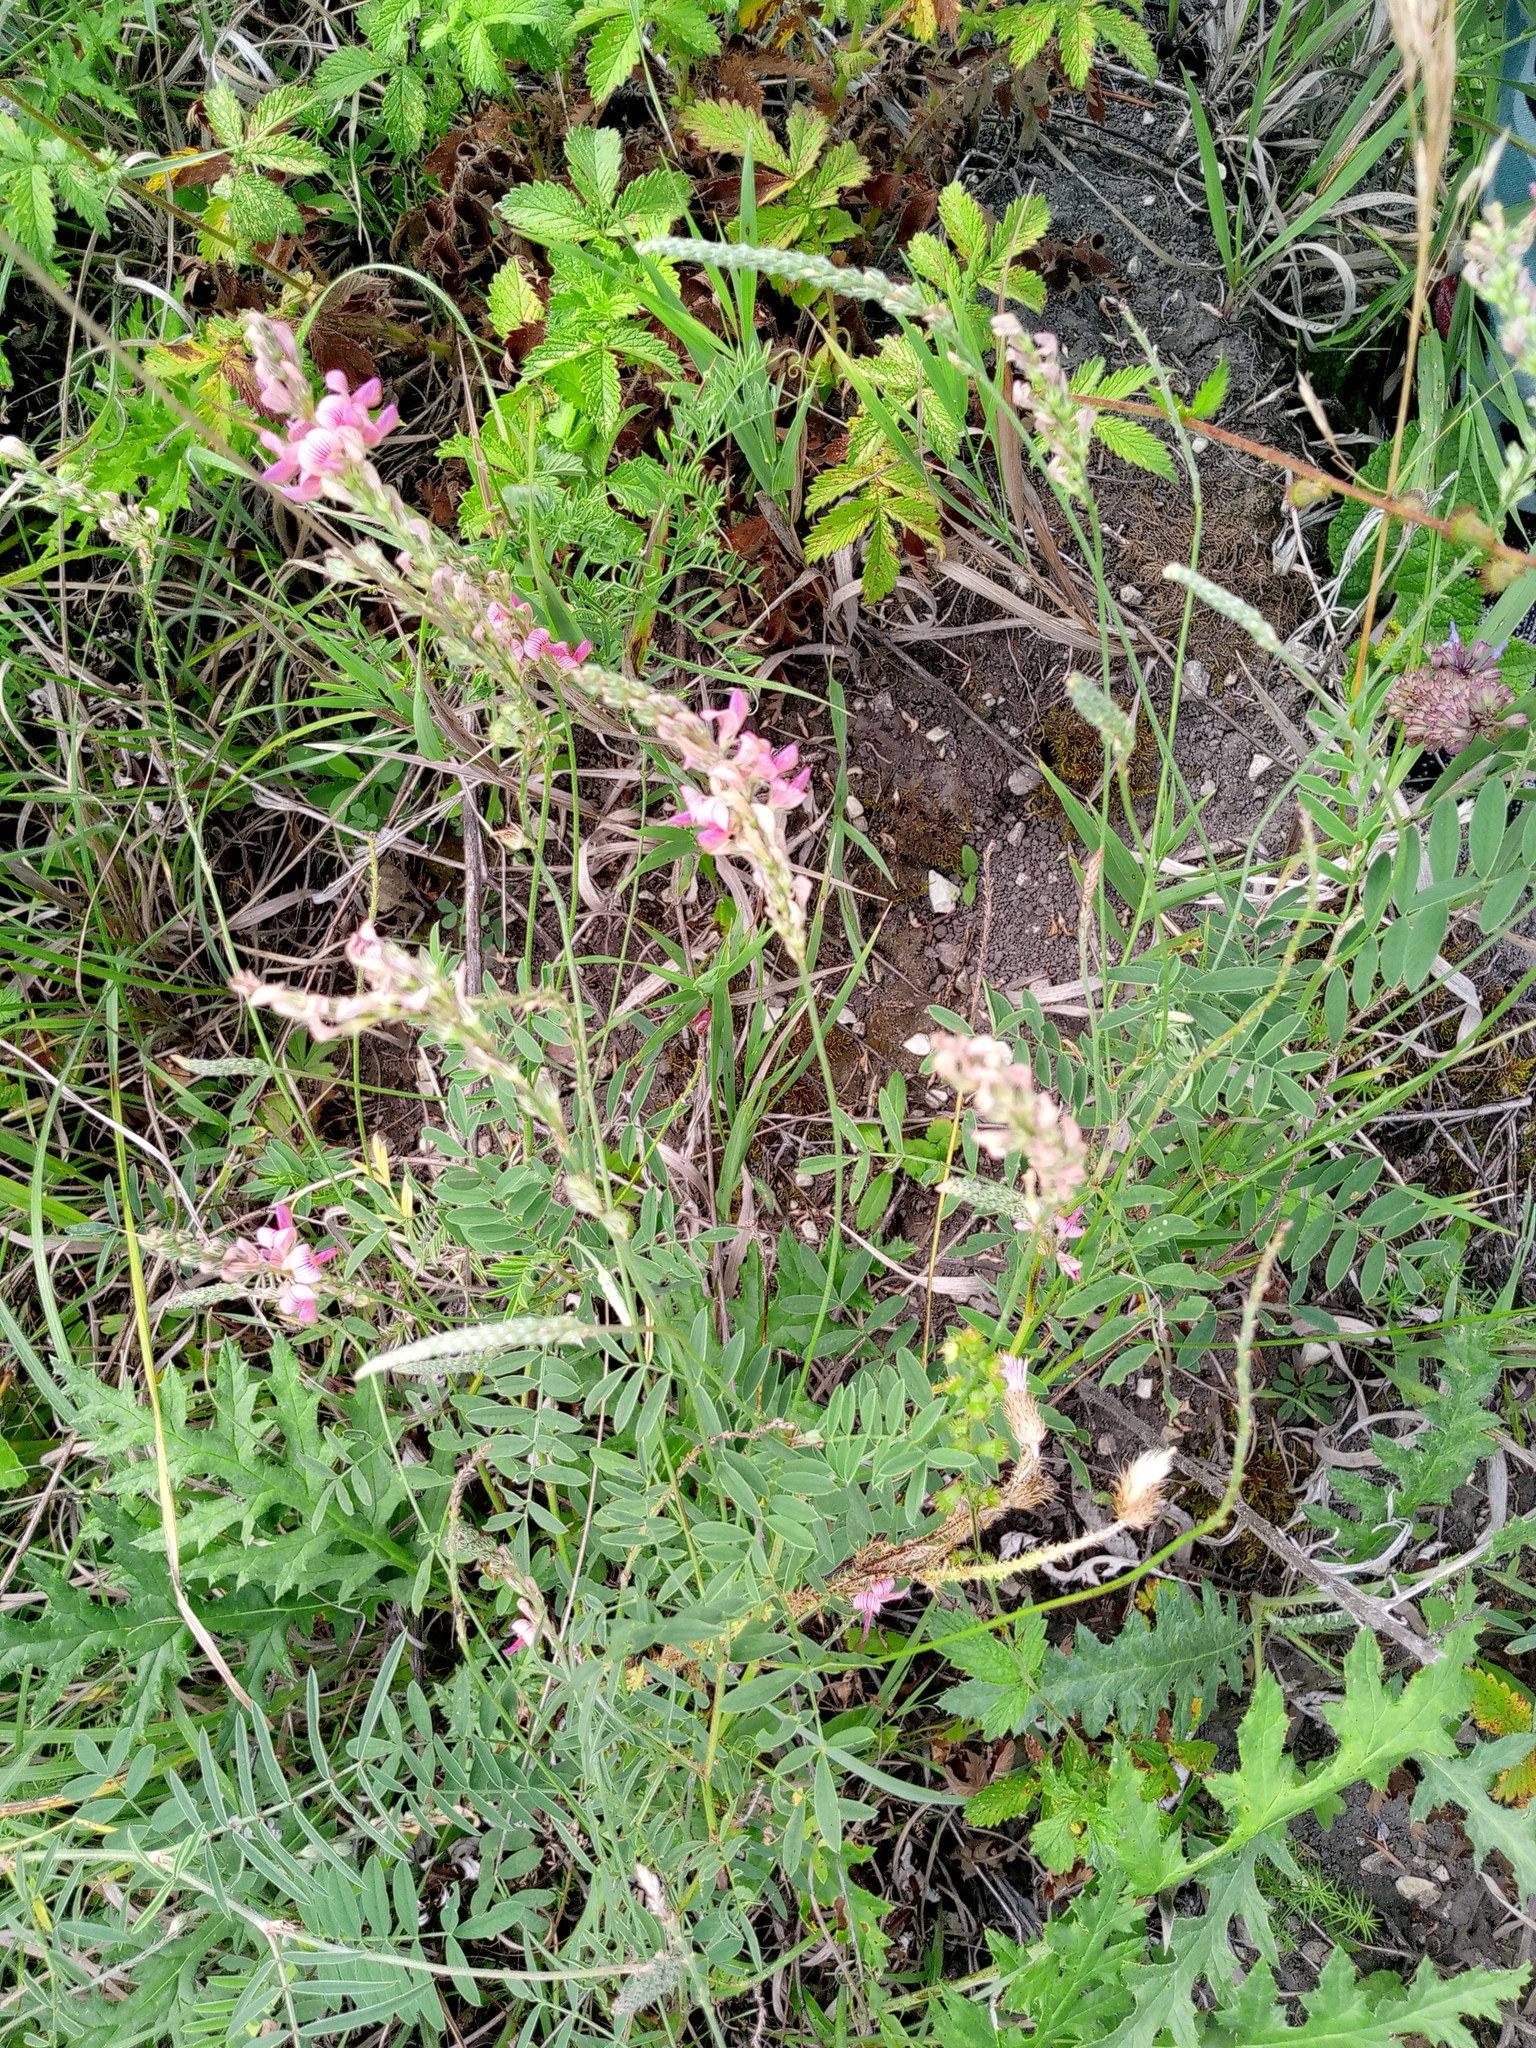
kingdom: Plantae
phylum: Tracheophyta
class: Magnoliopsida
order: Fabales
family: Fabaceae
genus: Onobrychis
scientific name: Onobrychis viciifolia
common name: Sainfoin
